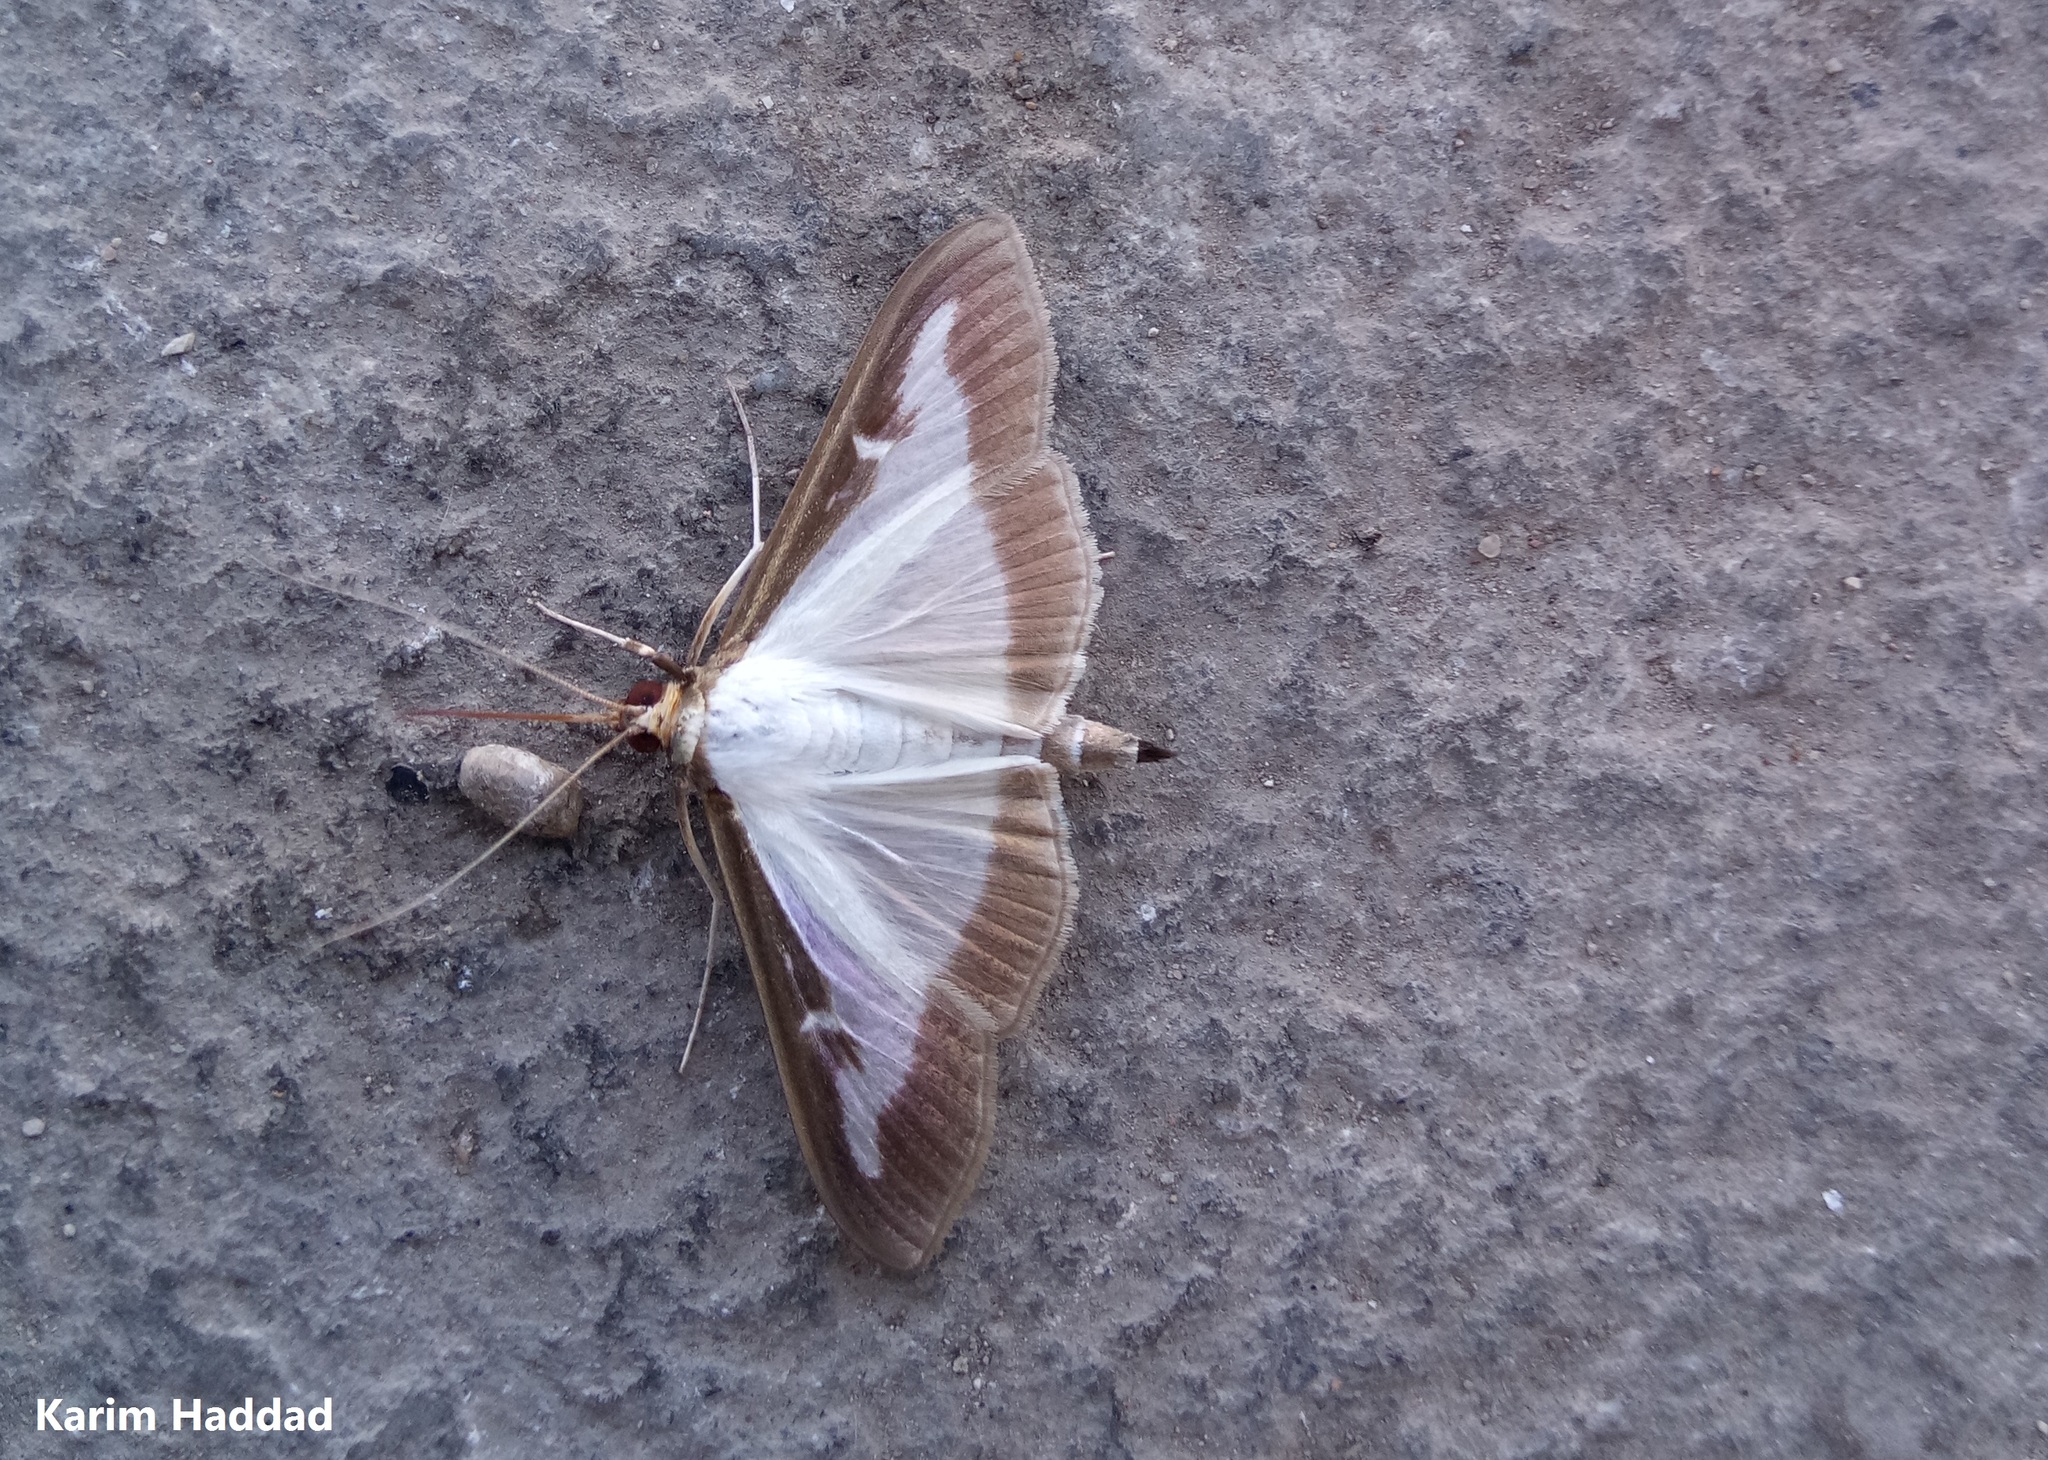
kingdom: Animalia
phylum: Arthropoda
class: Insecta
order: Lepidoptera
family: Crambidae
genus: Cydalima
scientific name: Cydalima perspectalis
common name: Box tree moth
